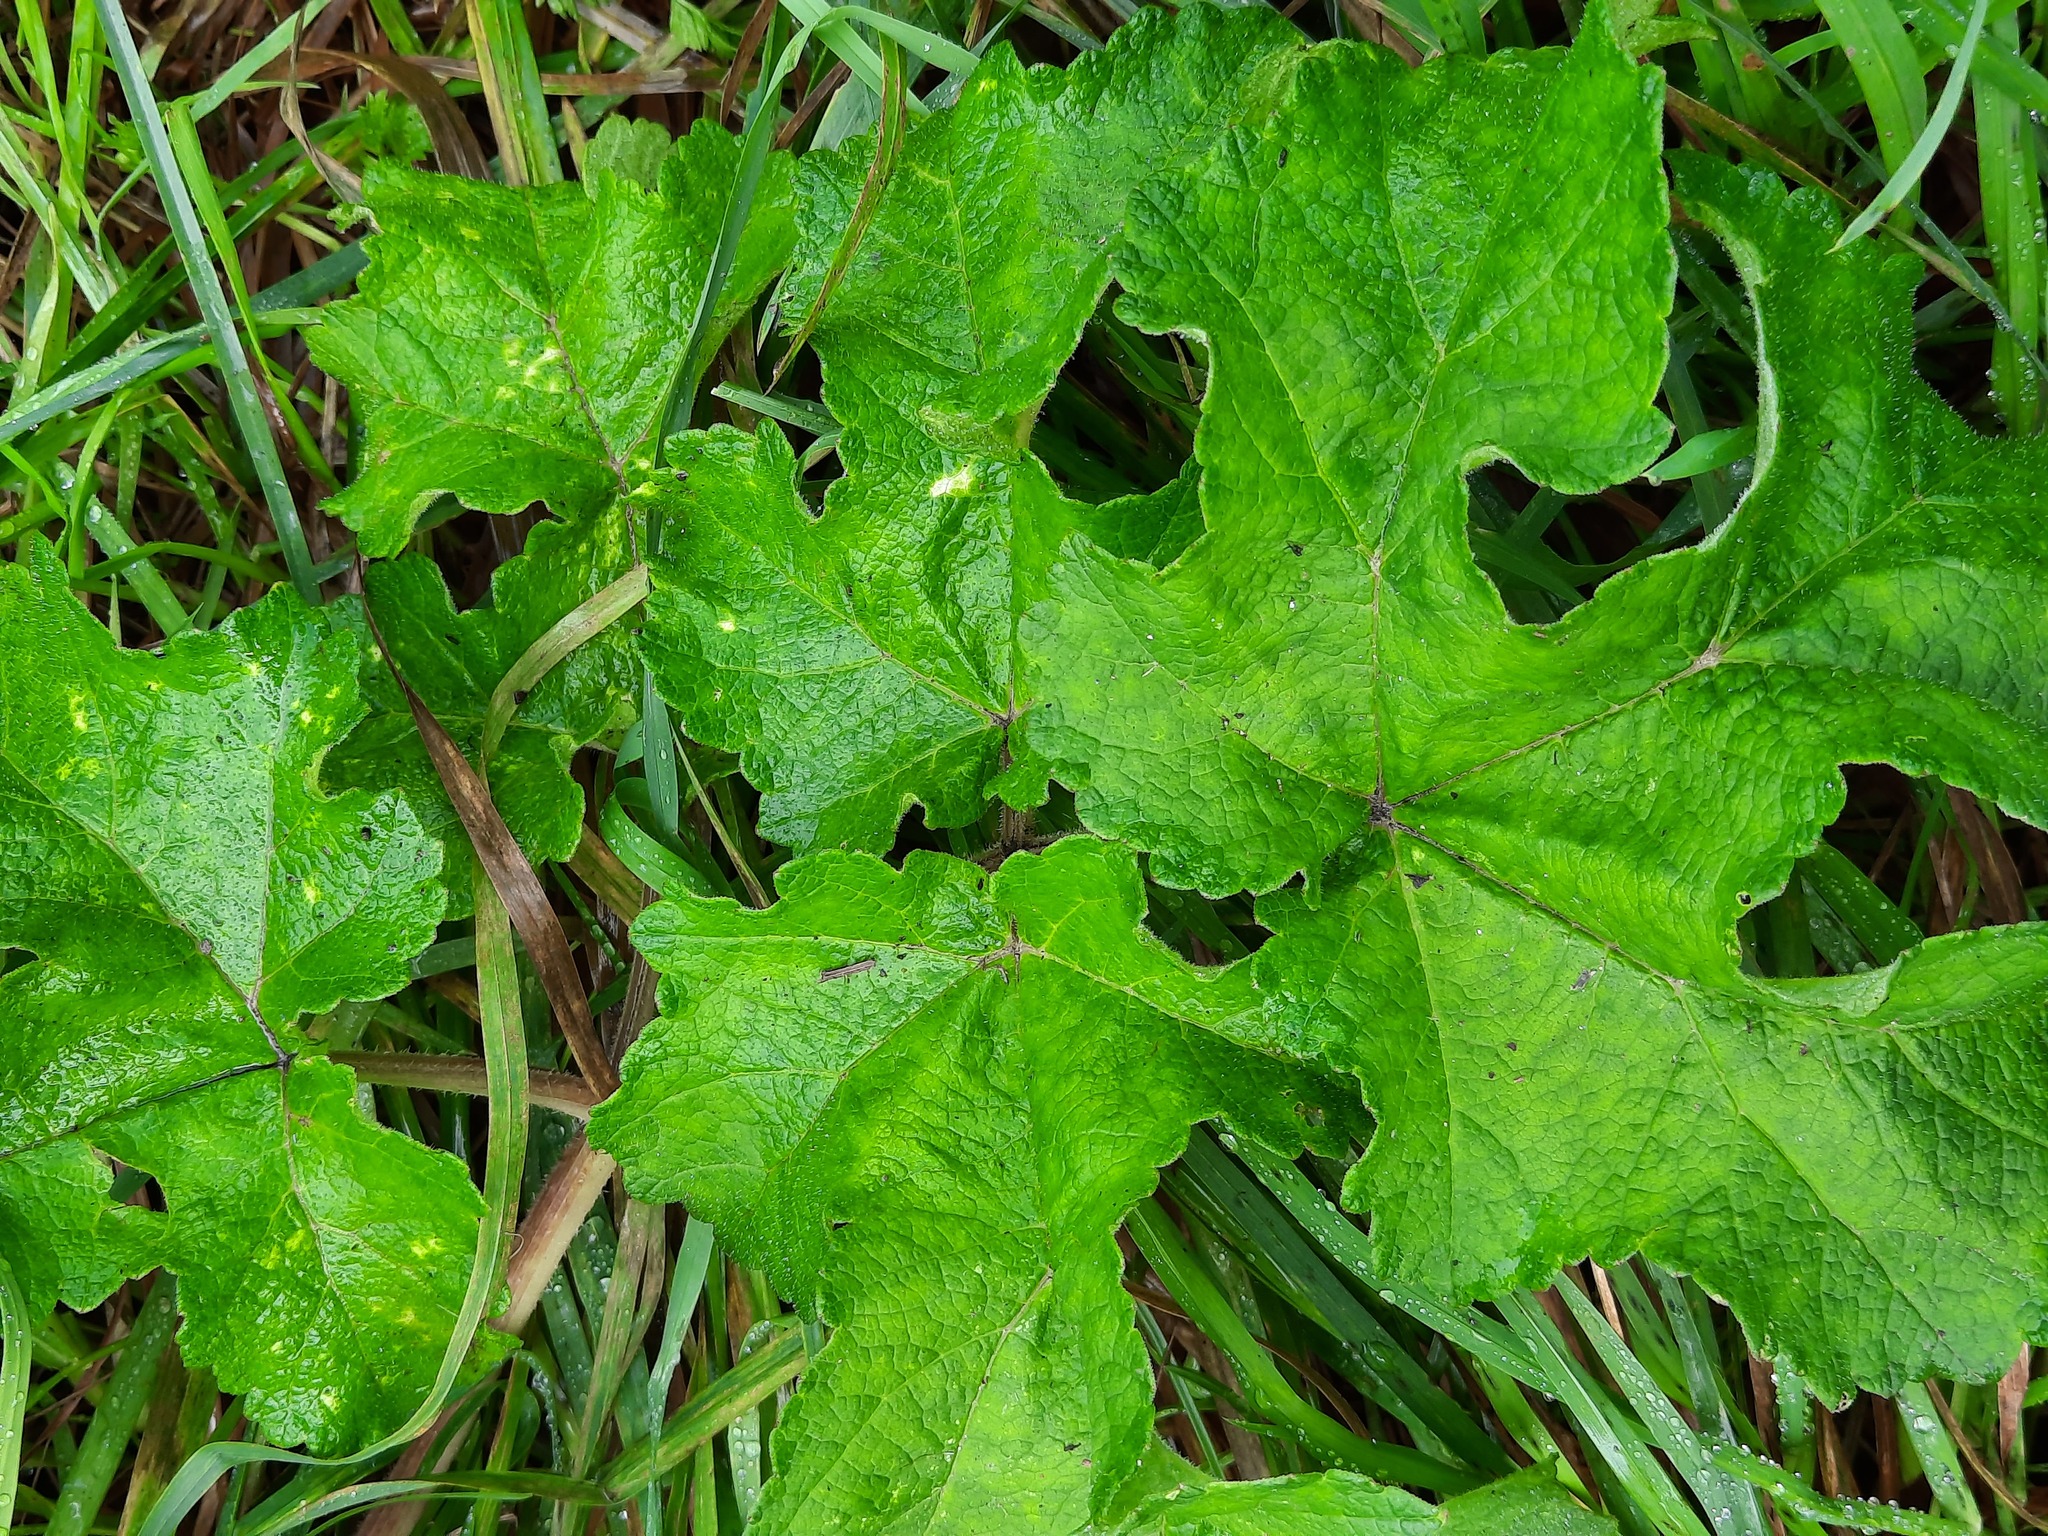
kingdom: Plantae
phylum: Tracheophyta
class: Magnoliopsida
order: Apiales
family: Apiaceae
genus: Heracleum
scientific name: Heracleum sphondylium
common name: Hogweed
